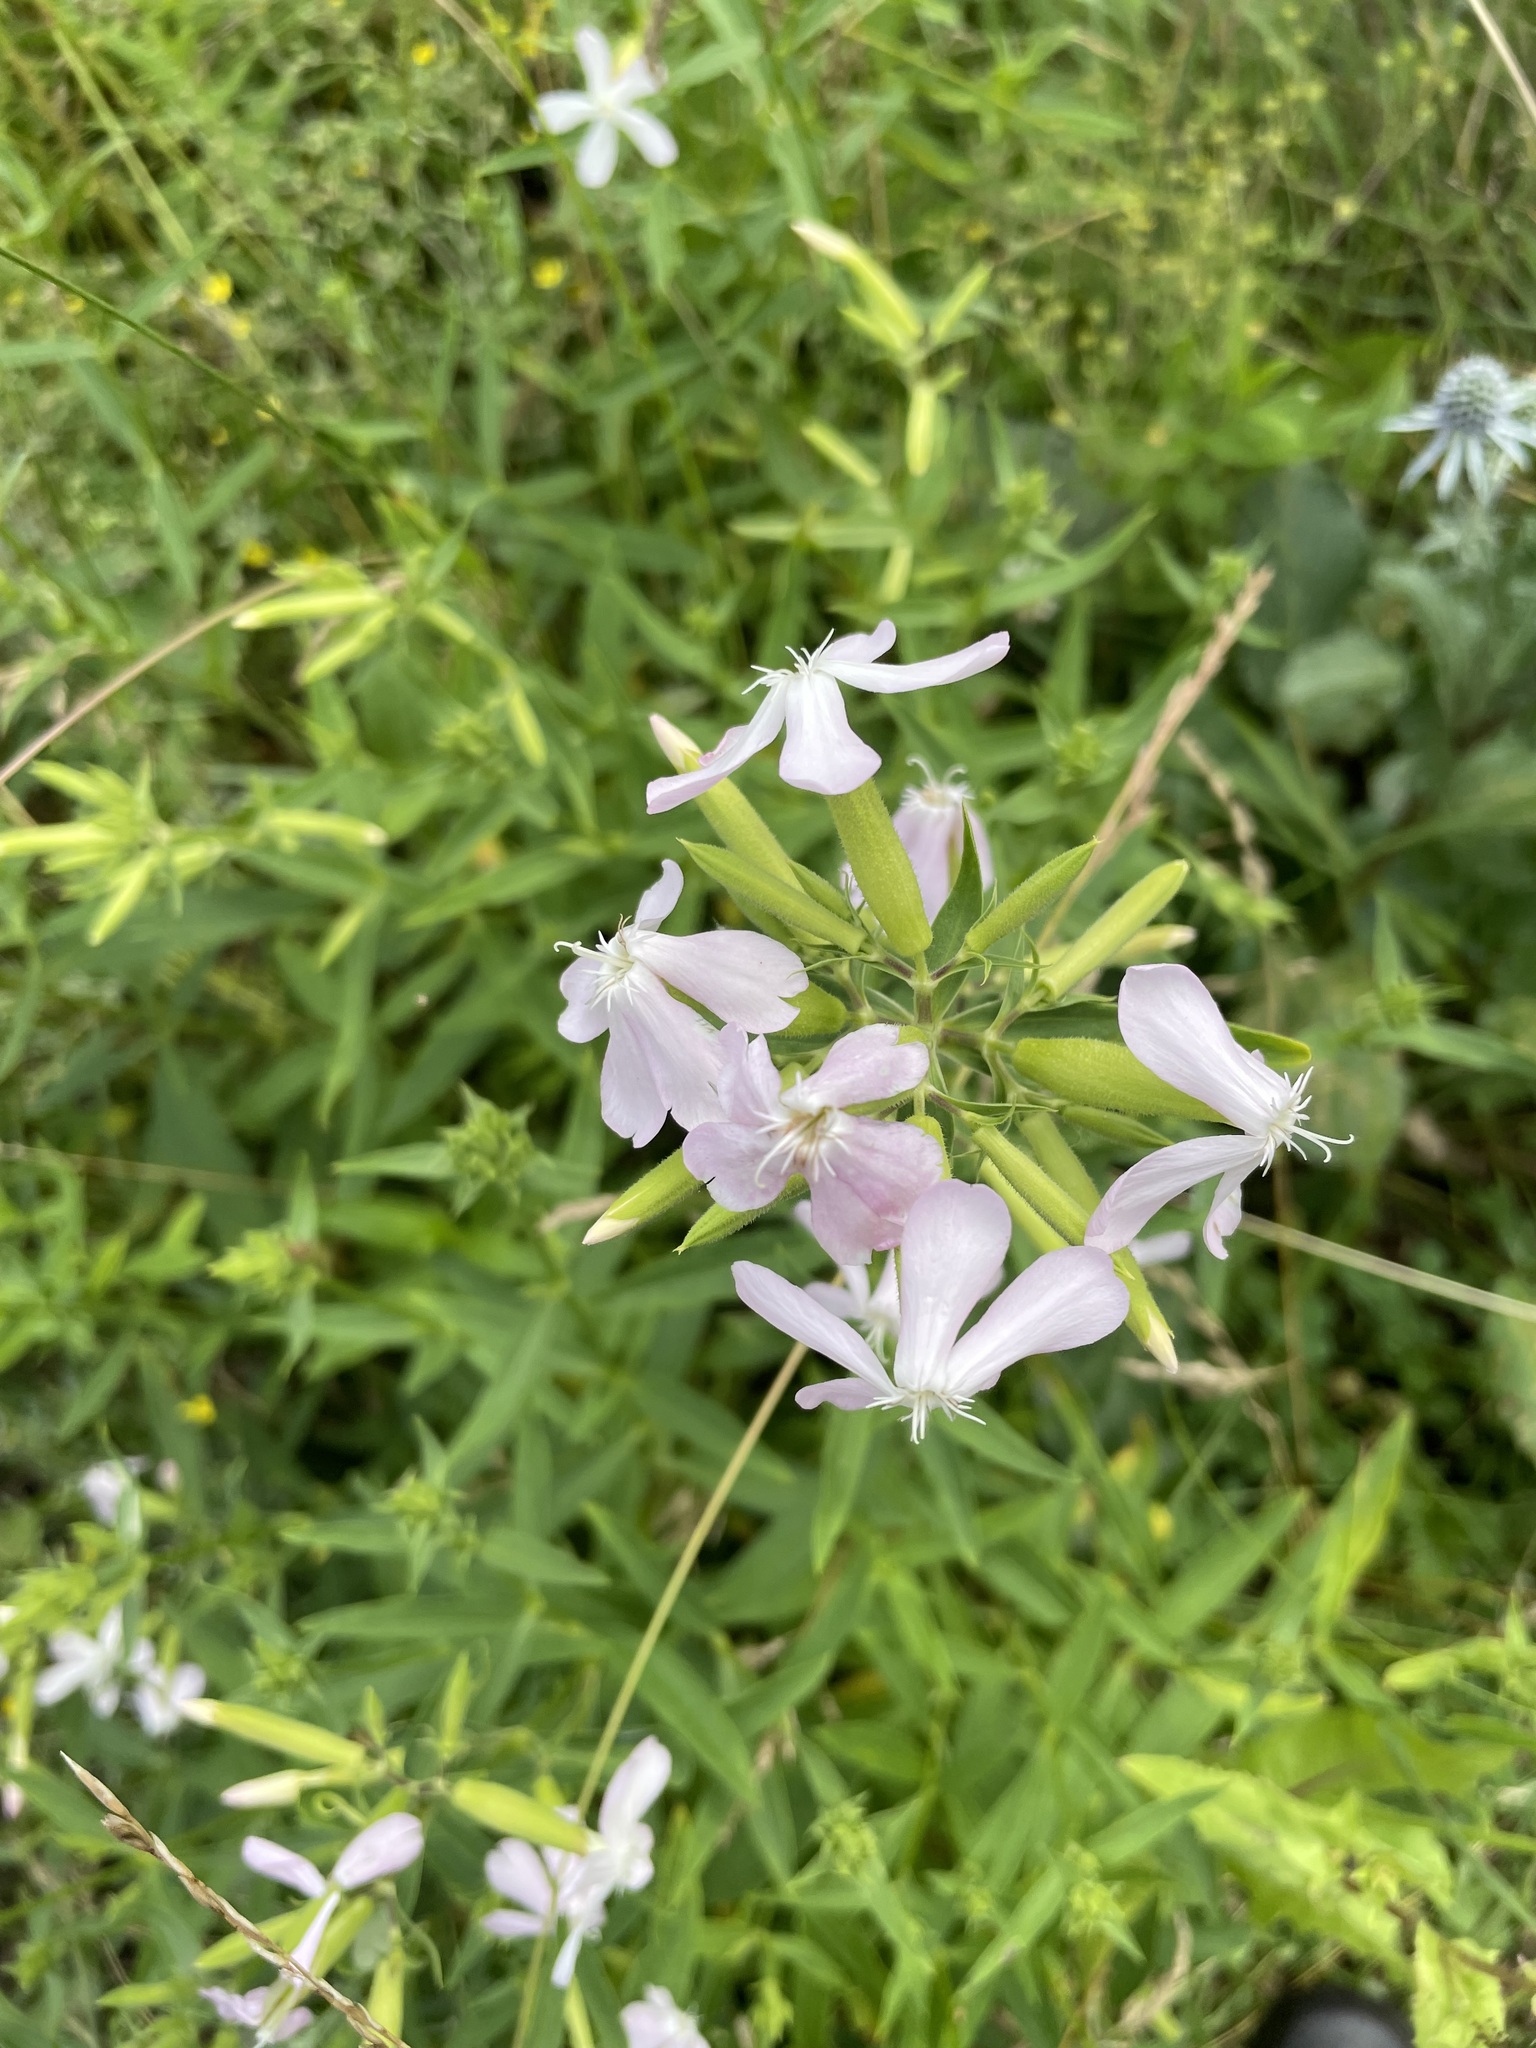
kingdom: Plantae
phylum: Tracheophyta
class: Magnoliopsida
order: Caryophyllales
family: Caryophyllaceae
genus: Saponaria
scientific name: Saponaria officinalis
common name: Soapwort
